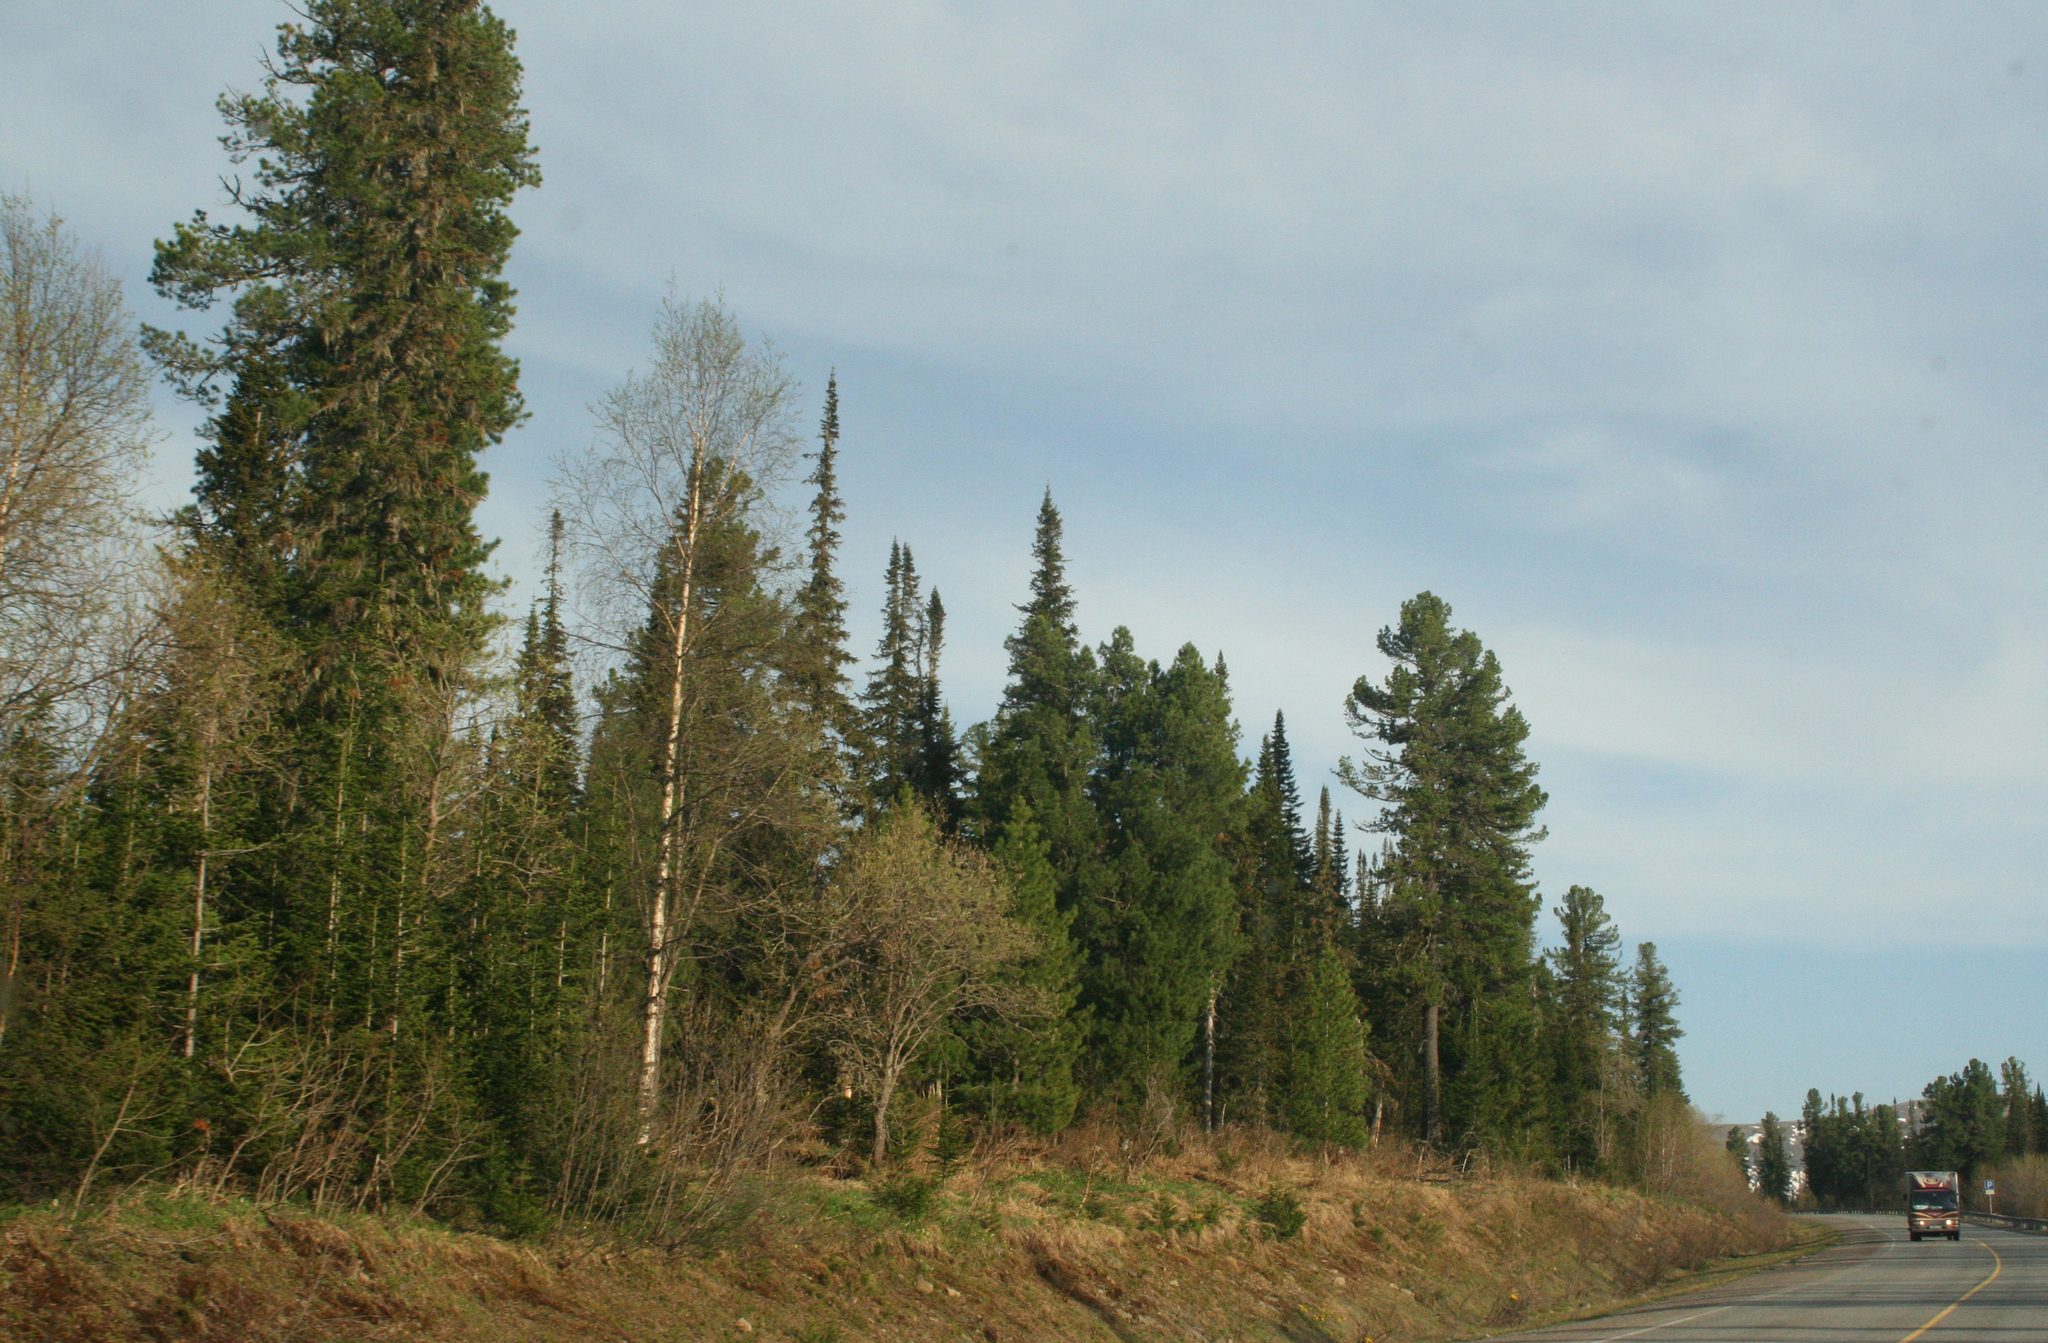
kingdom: Plantae
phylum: Tracheophyta
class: Pinopsida
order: Pinales
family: Pinaceae
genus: Abies
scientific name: Abies sibirica
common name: Siberian fir
